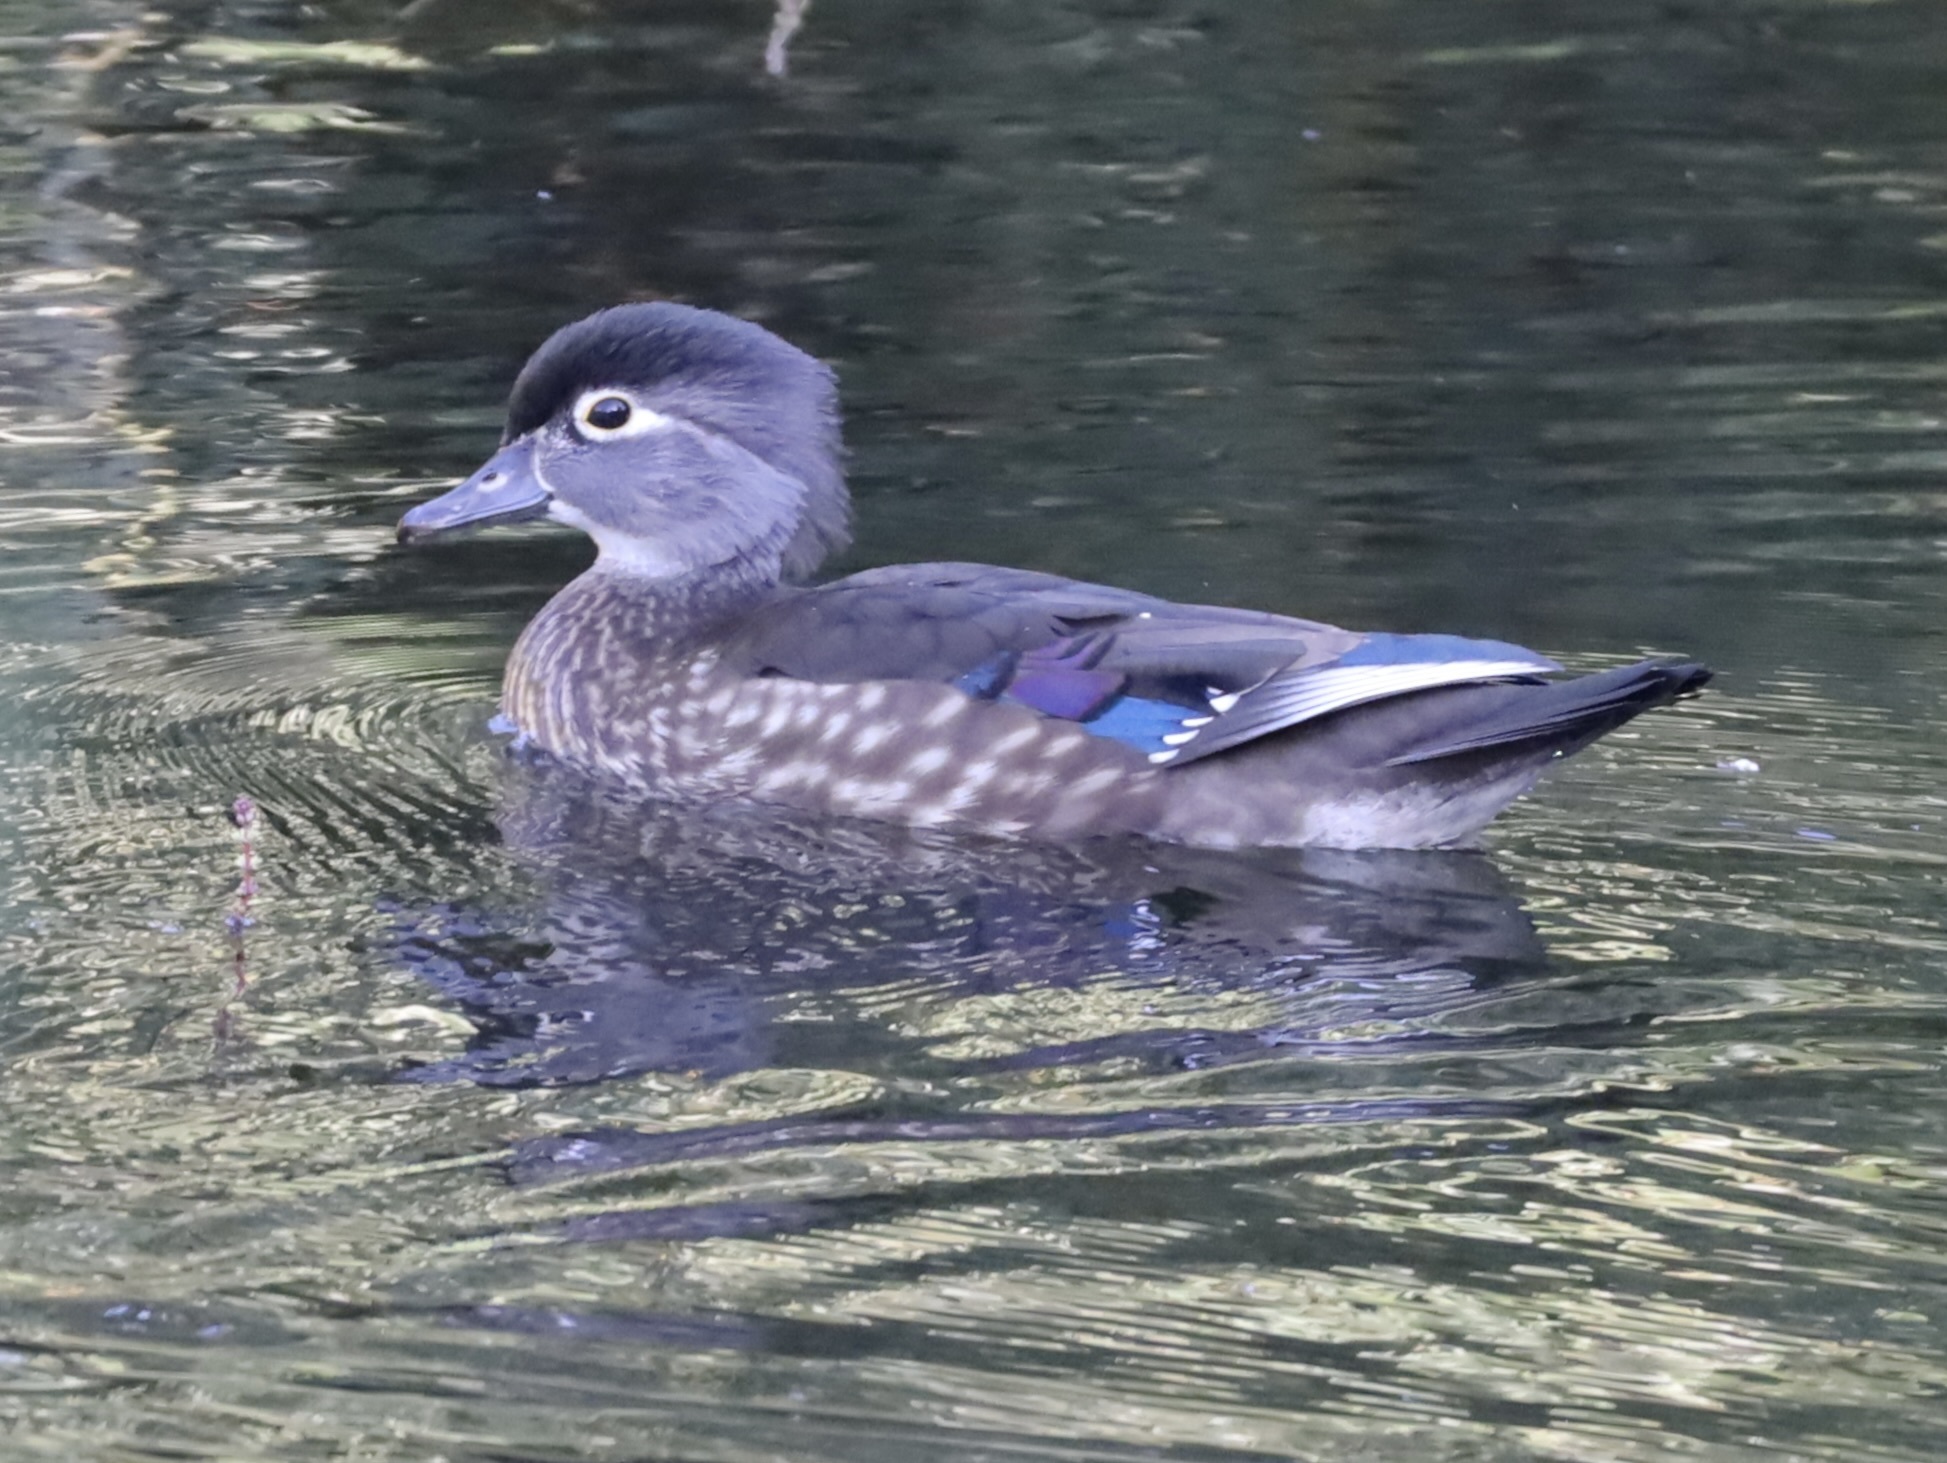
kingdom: Animalia
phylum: Chordata
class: Aves
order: Anseriformes
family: Anatidae
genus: Aix
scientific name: Aix sponsa
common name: Wood duck
